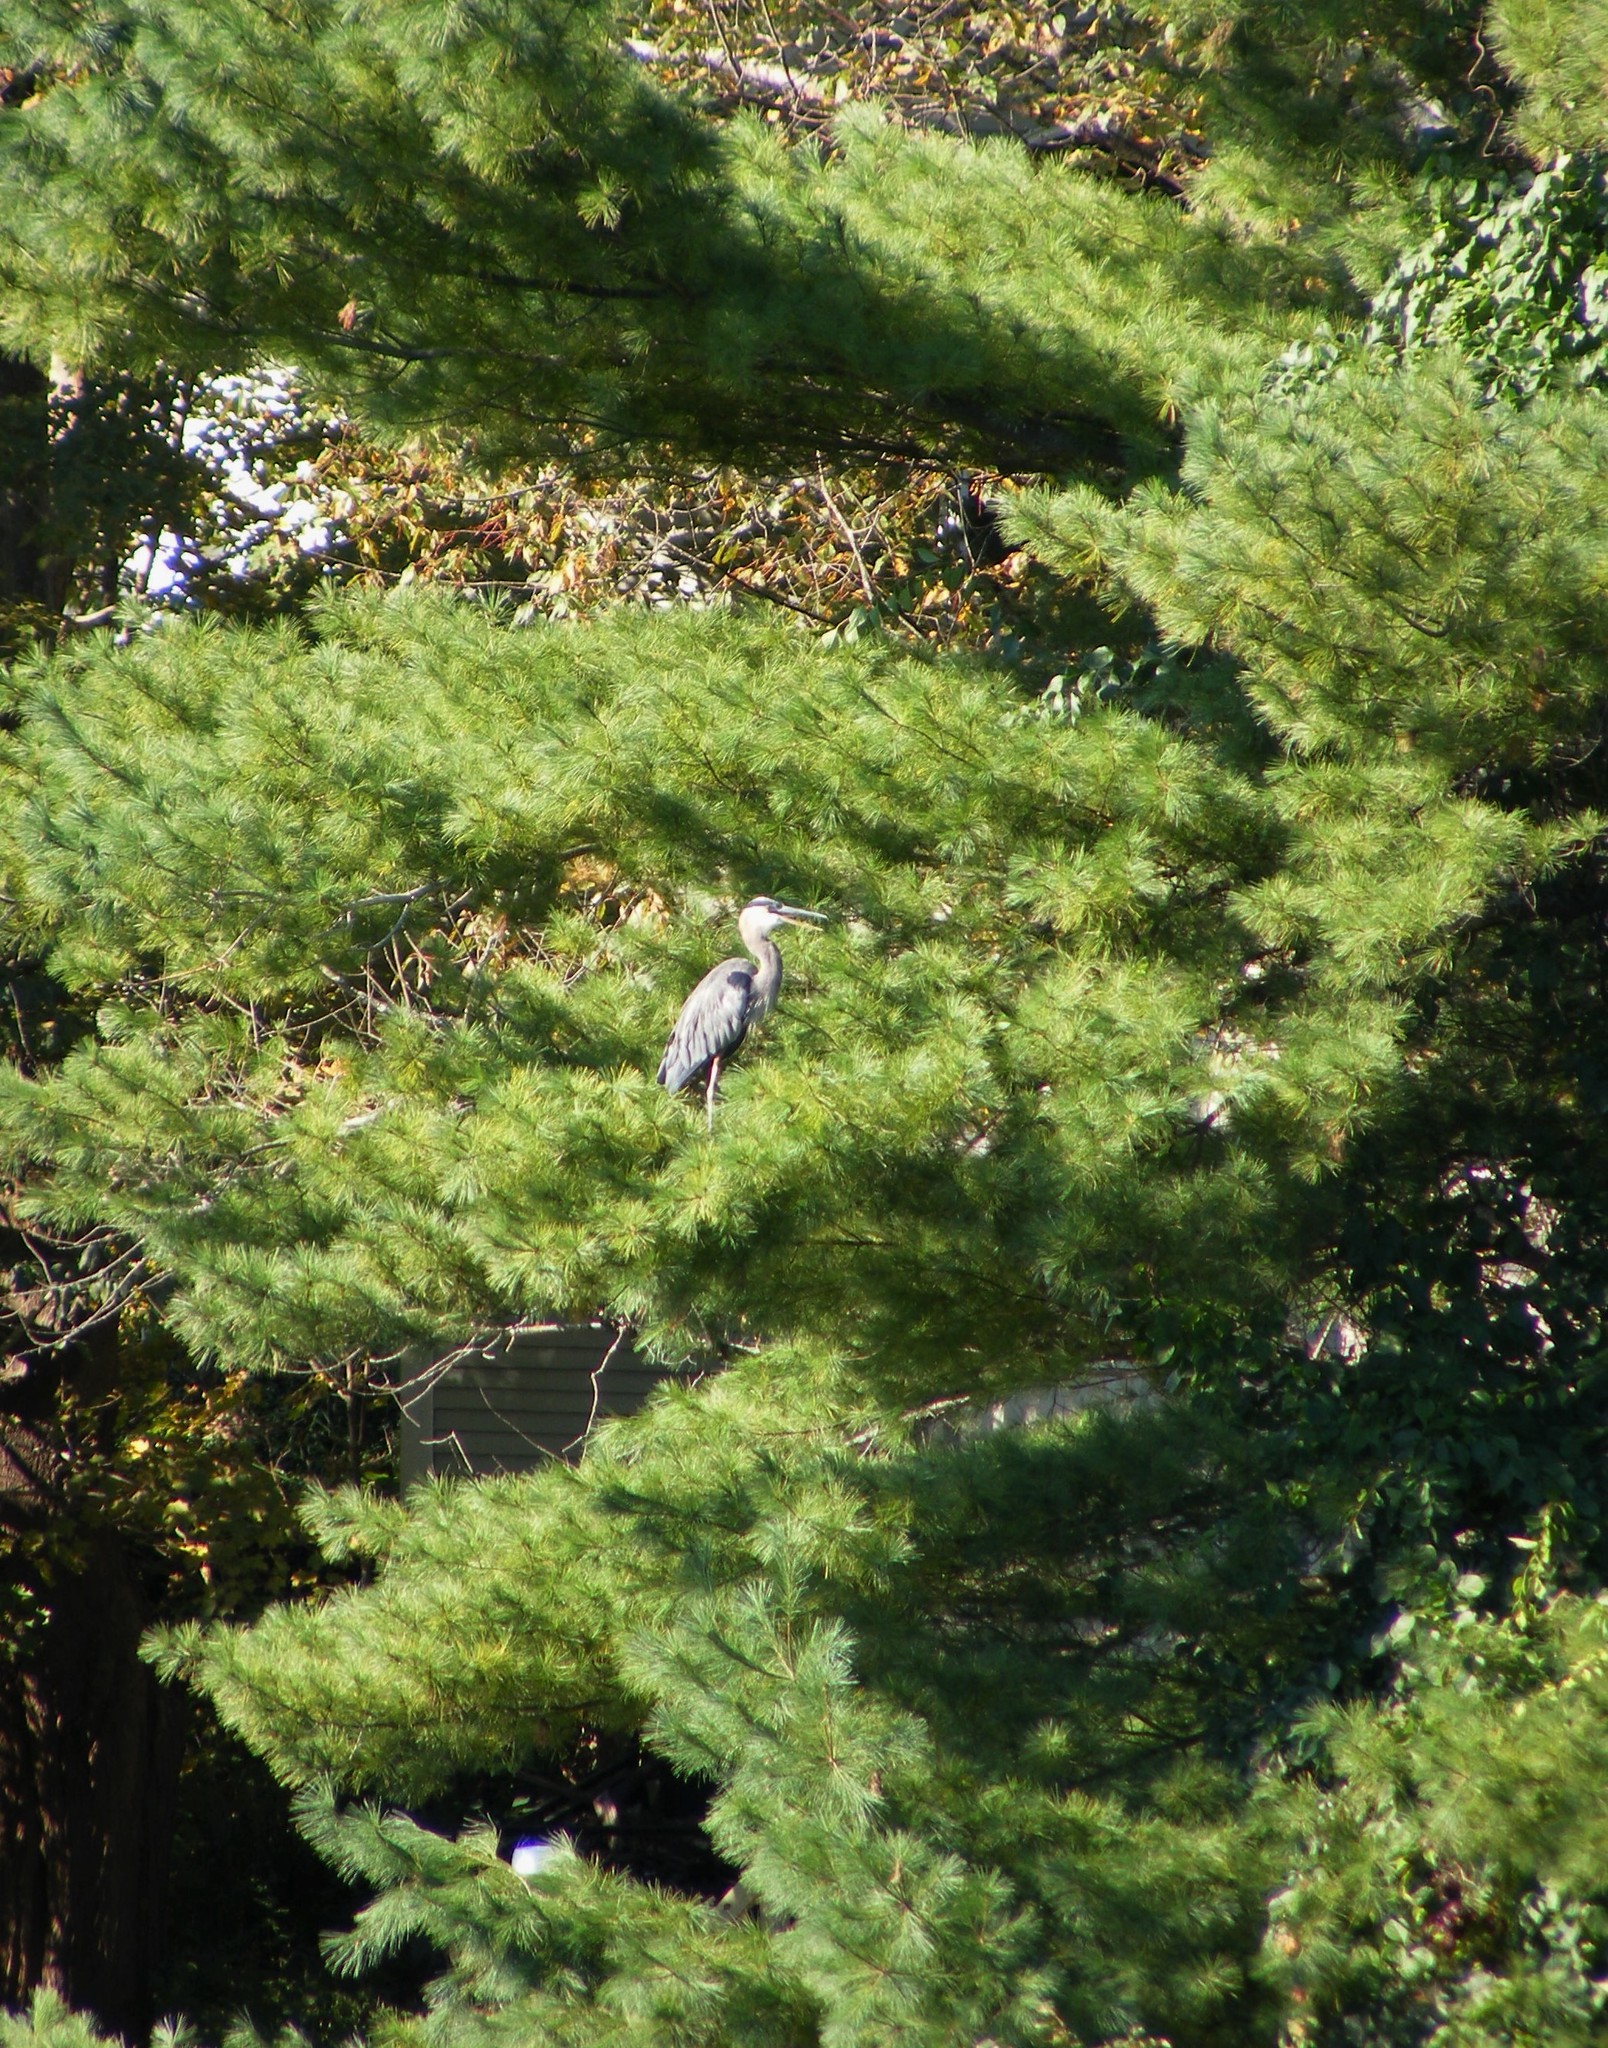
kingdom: Animalia
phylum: Chordata
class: Aves
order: Pelecaniformes
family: Ardeidae
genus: Ardea
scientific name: Ardea herodias
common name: Great blue heron
